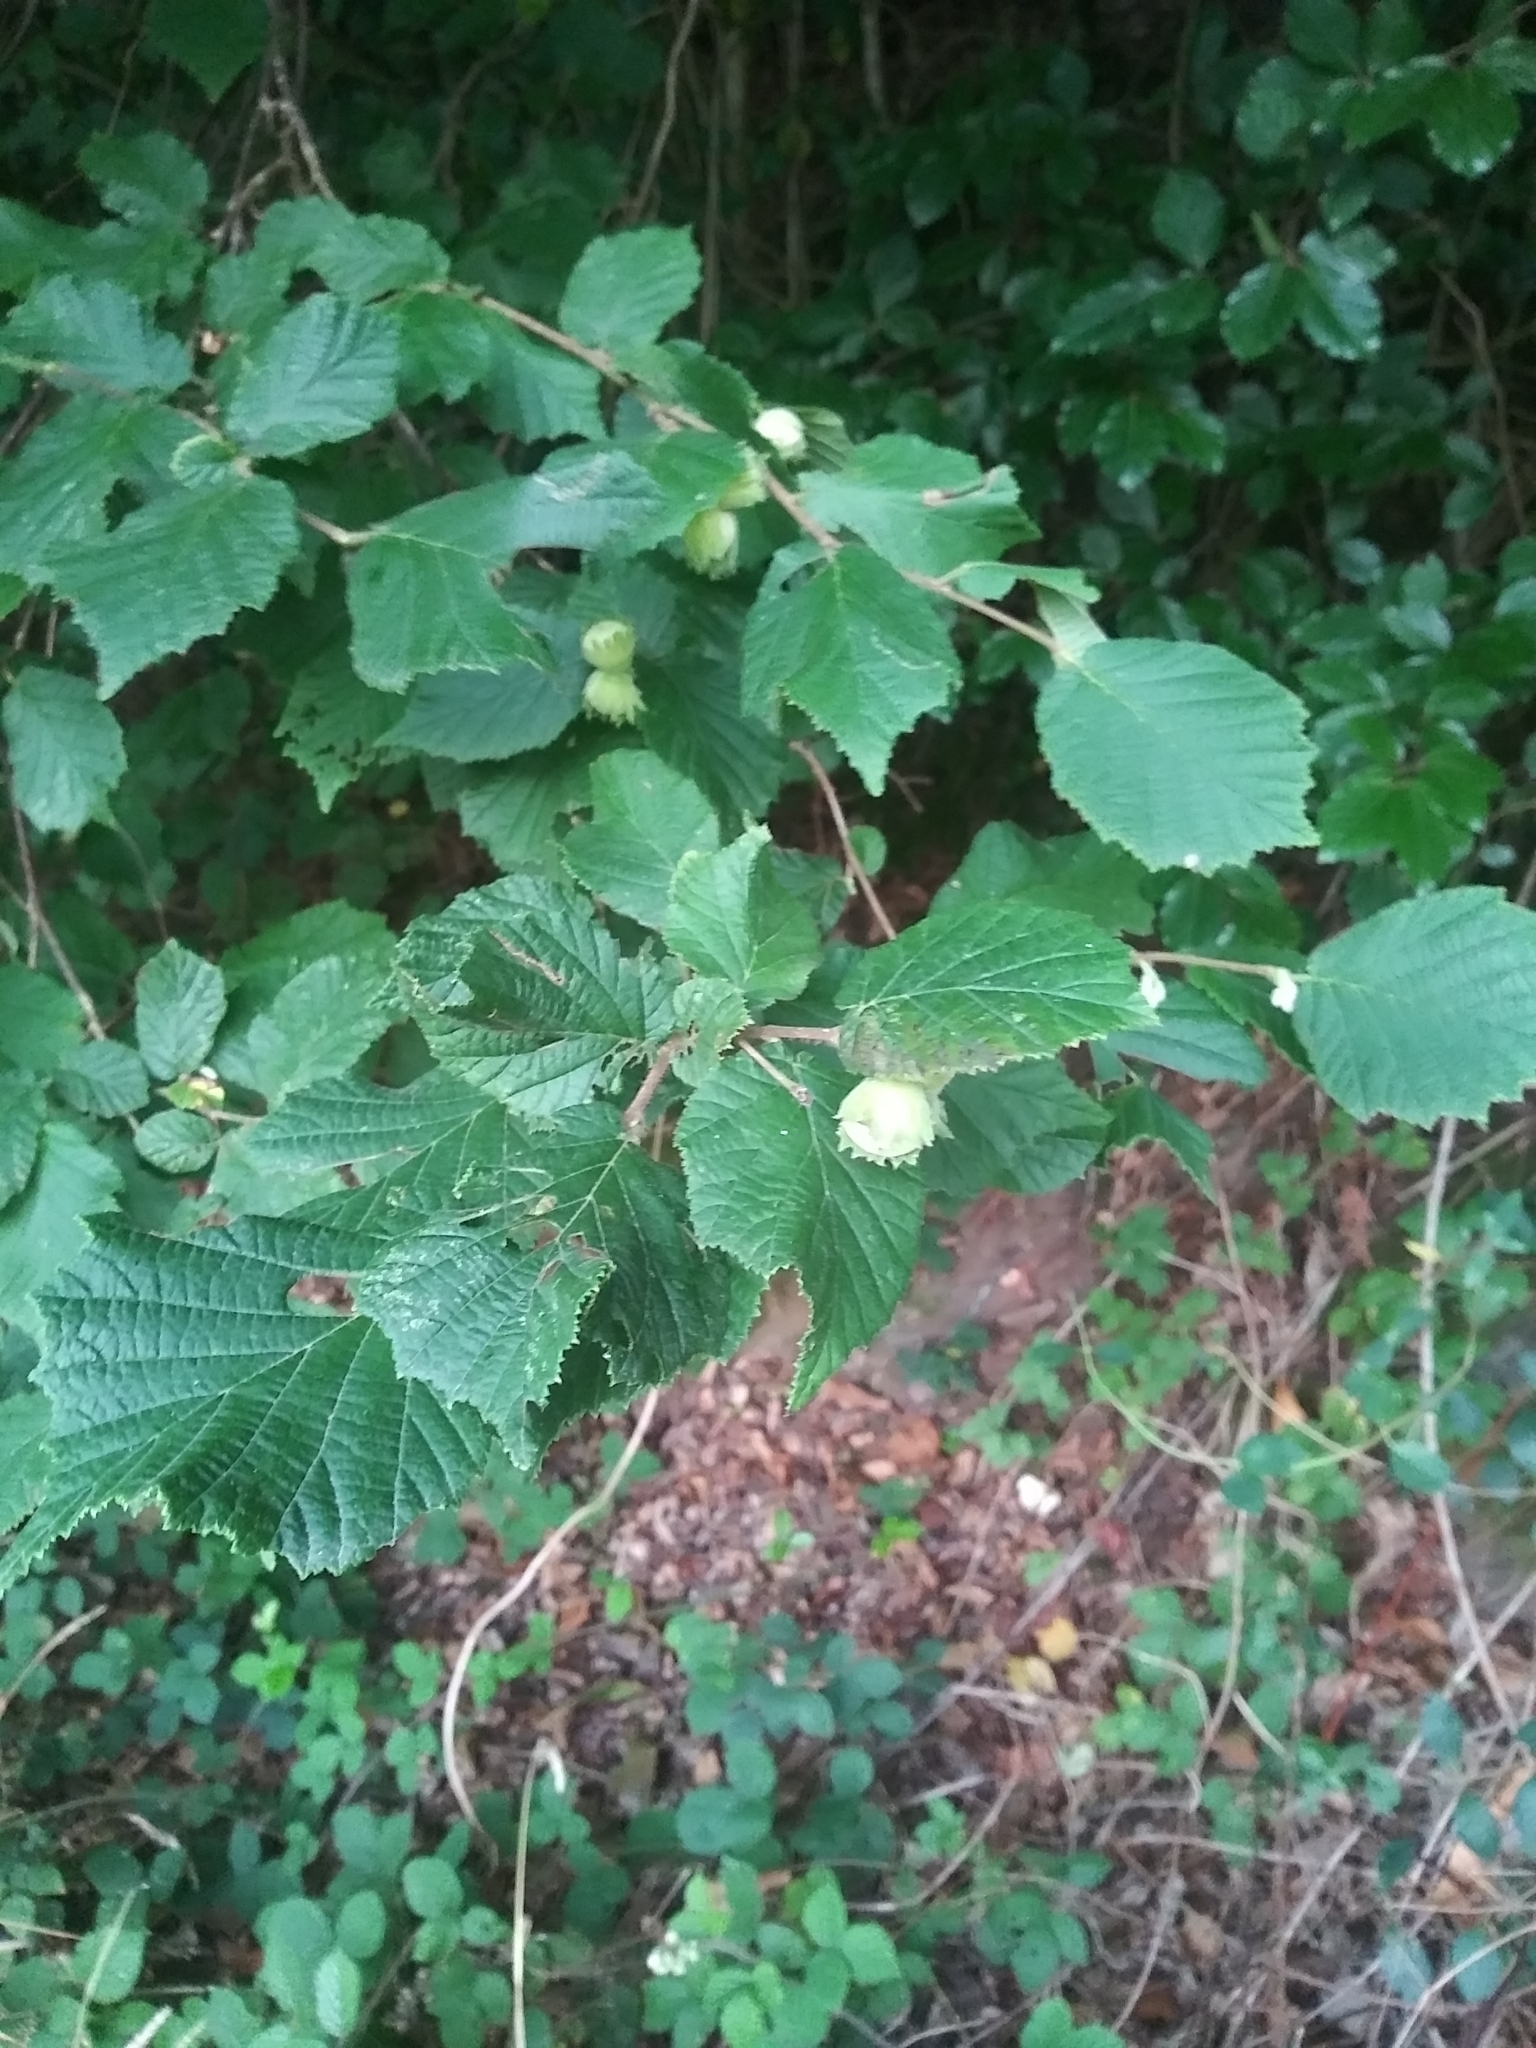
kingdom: Plantae
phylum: Tracheophyta
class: Magnoliopsida
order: Fagales
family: Betulaceae
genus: Corylus
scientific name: Corylus avellana
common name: European hazel
